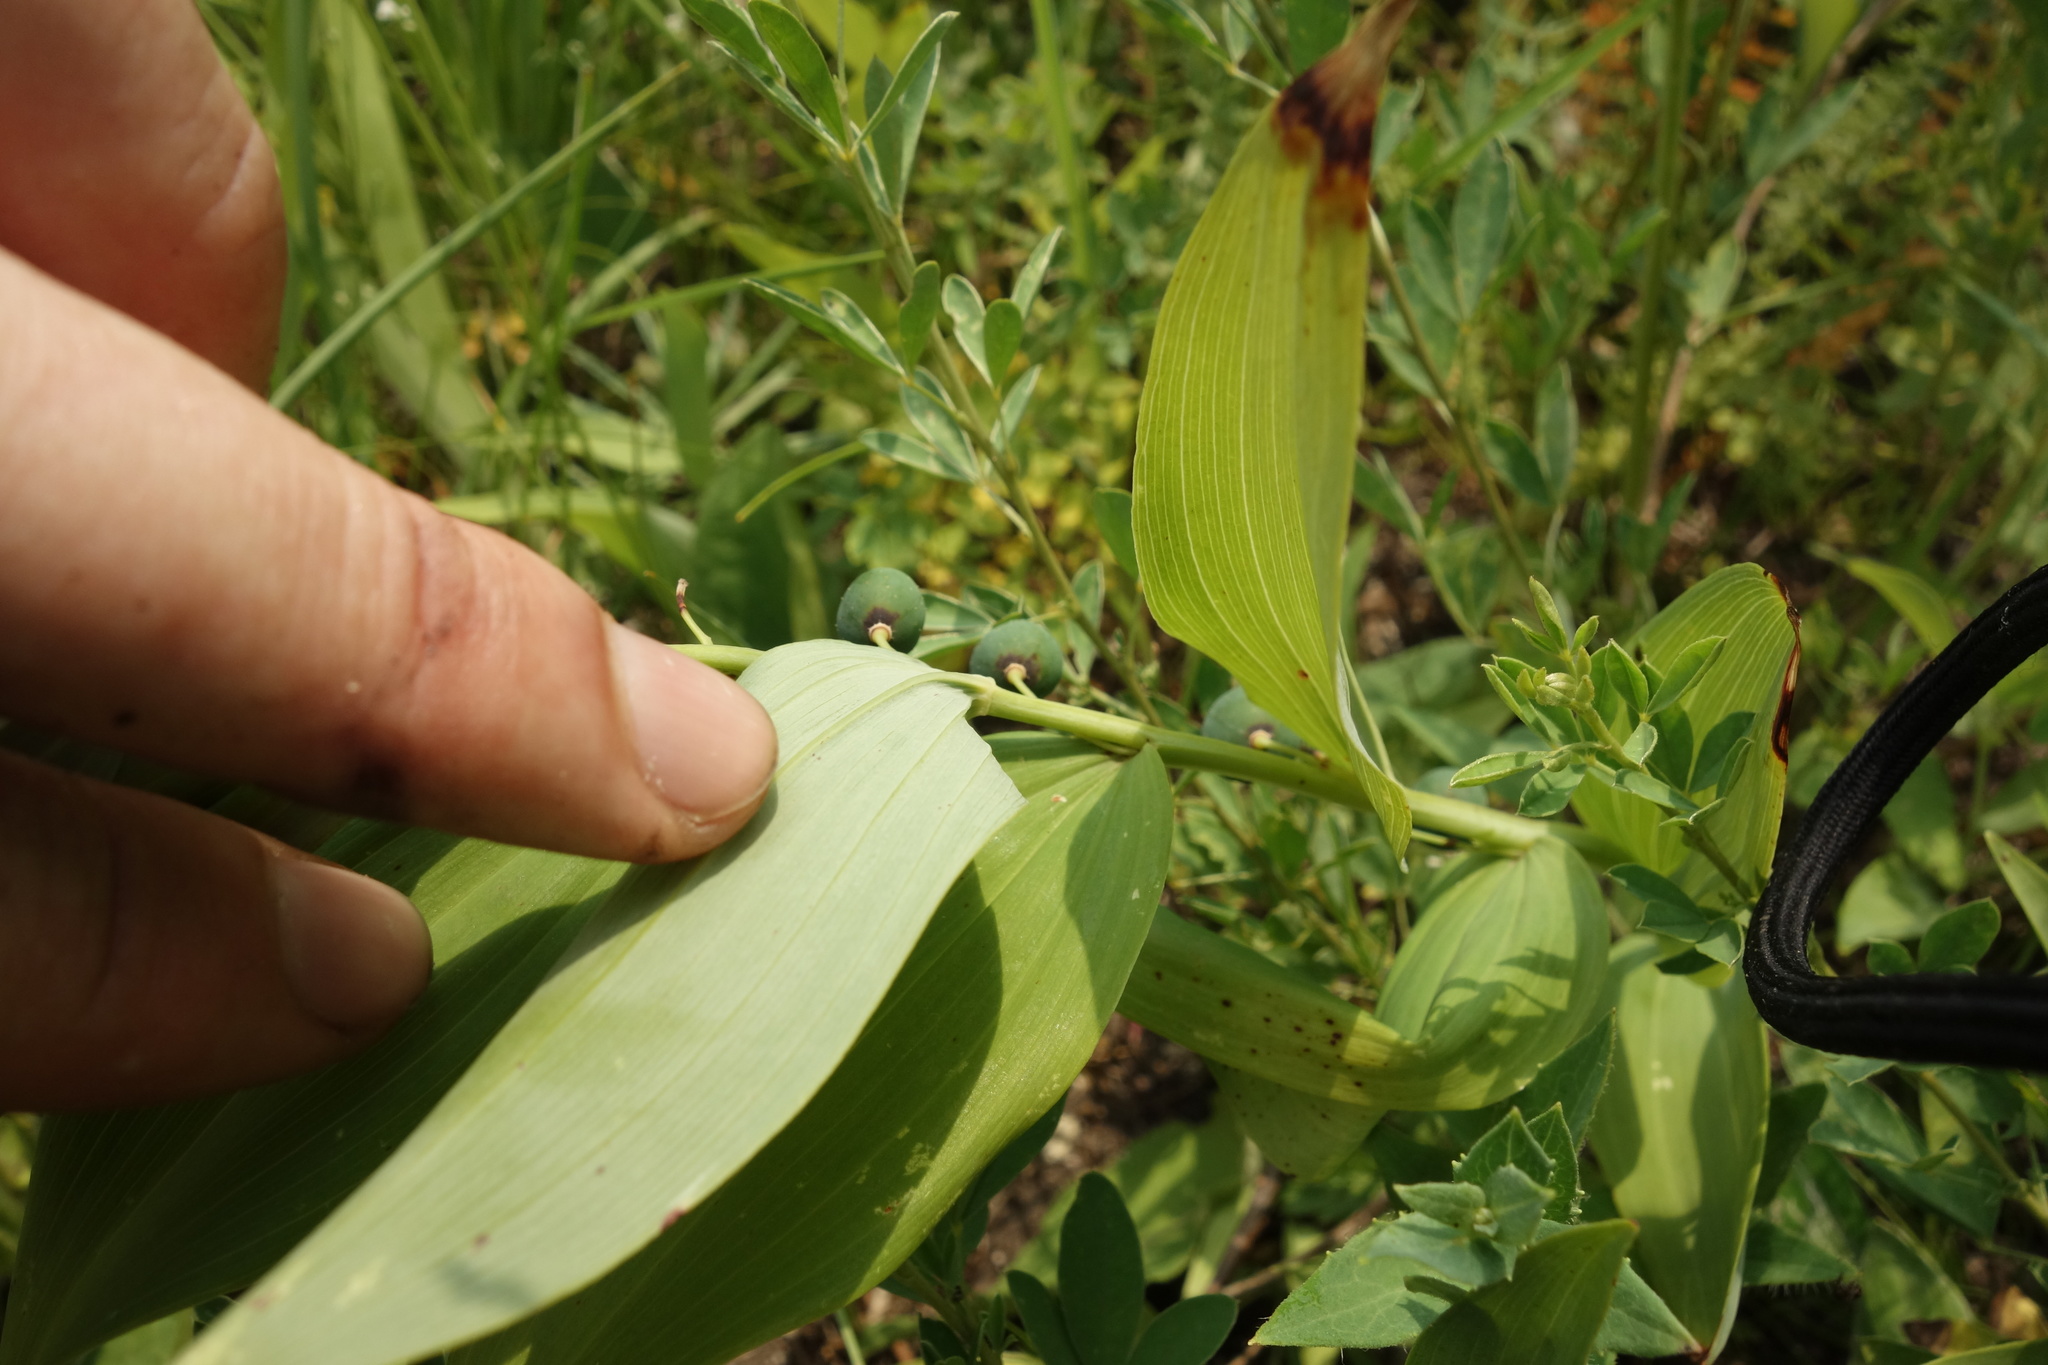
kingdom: Plantae
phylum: Tracheophyta
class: Liliopsida
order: Asparagales
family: Asparagaceae
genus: Polygonatum
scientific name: Polygonatum odoratum
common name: Angular solomon's-seal
